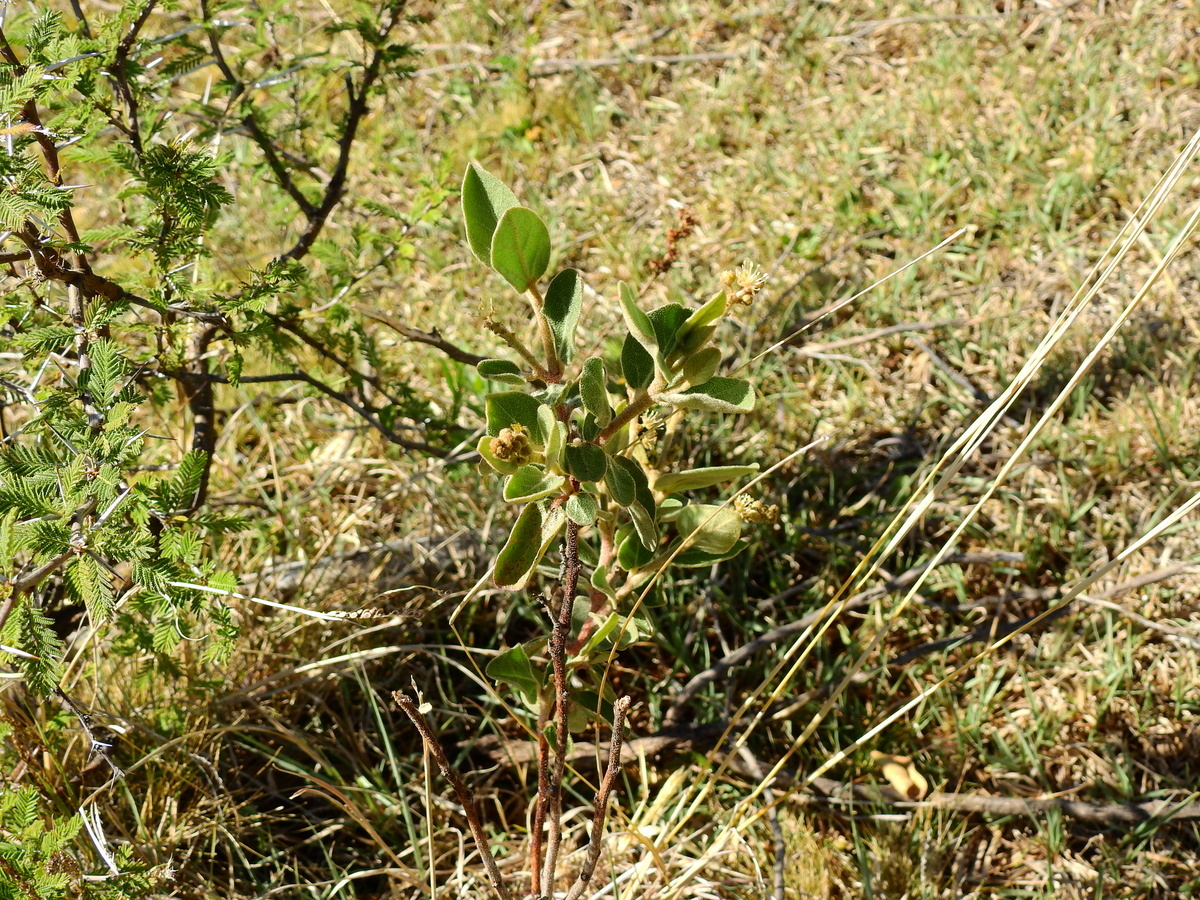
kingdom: Plantae
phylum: Tracheophyta
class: Magnoliopsida
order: Malpighiales
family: Euphorbiaceae
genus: Croton
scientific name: Croton lanatus
